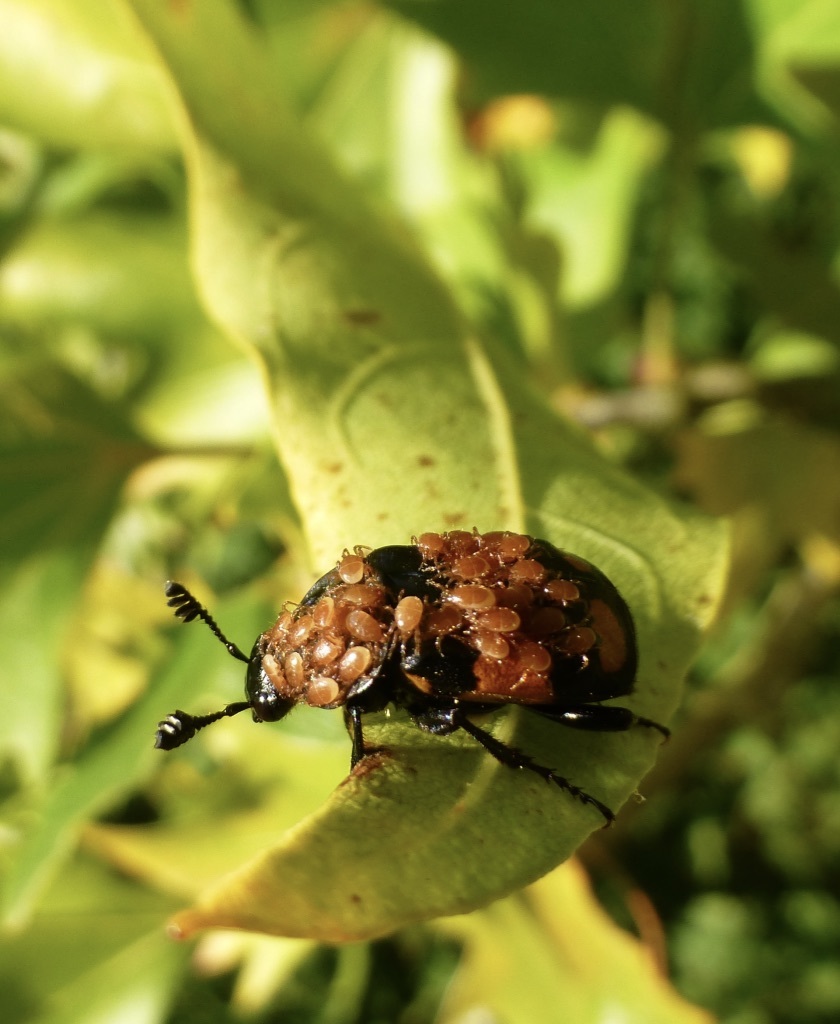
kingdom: Animalia
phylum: Arthropoda
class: Insecta
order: Coleoptera
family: Staphylinidae
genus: Nicrophorus
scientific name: Nicrophorus vespilloides
